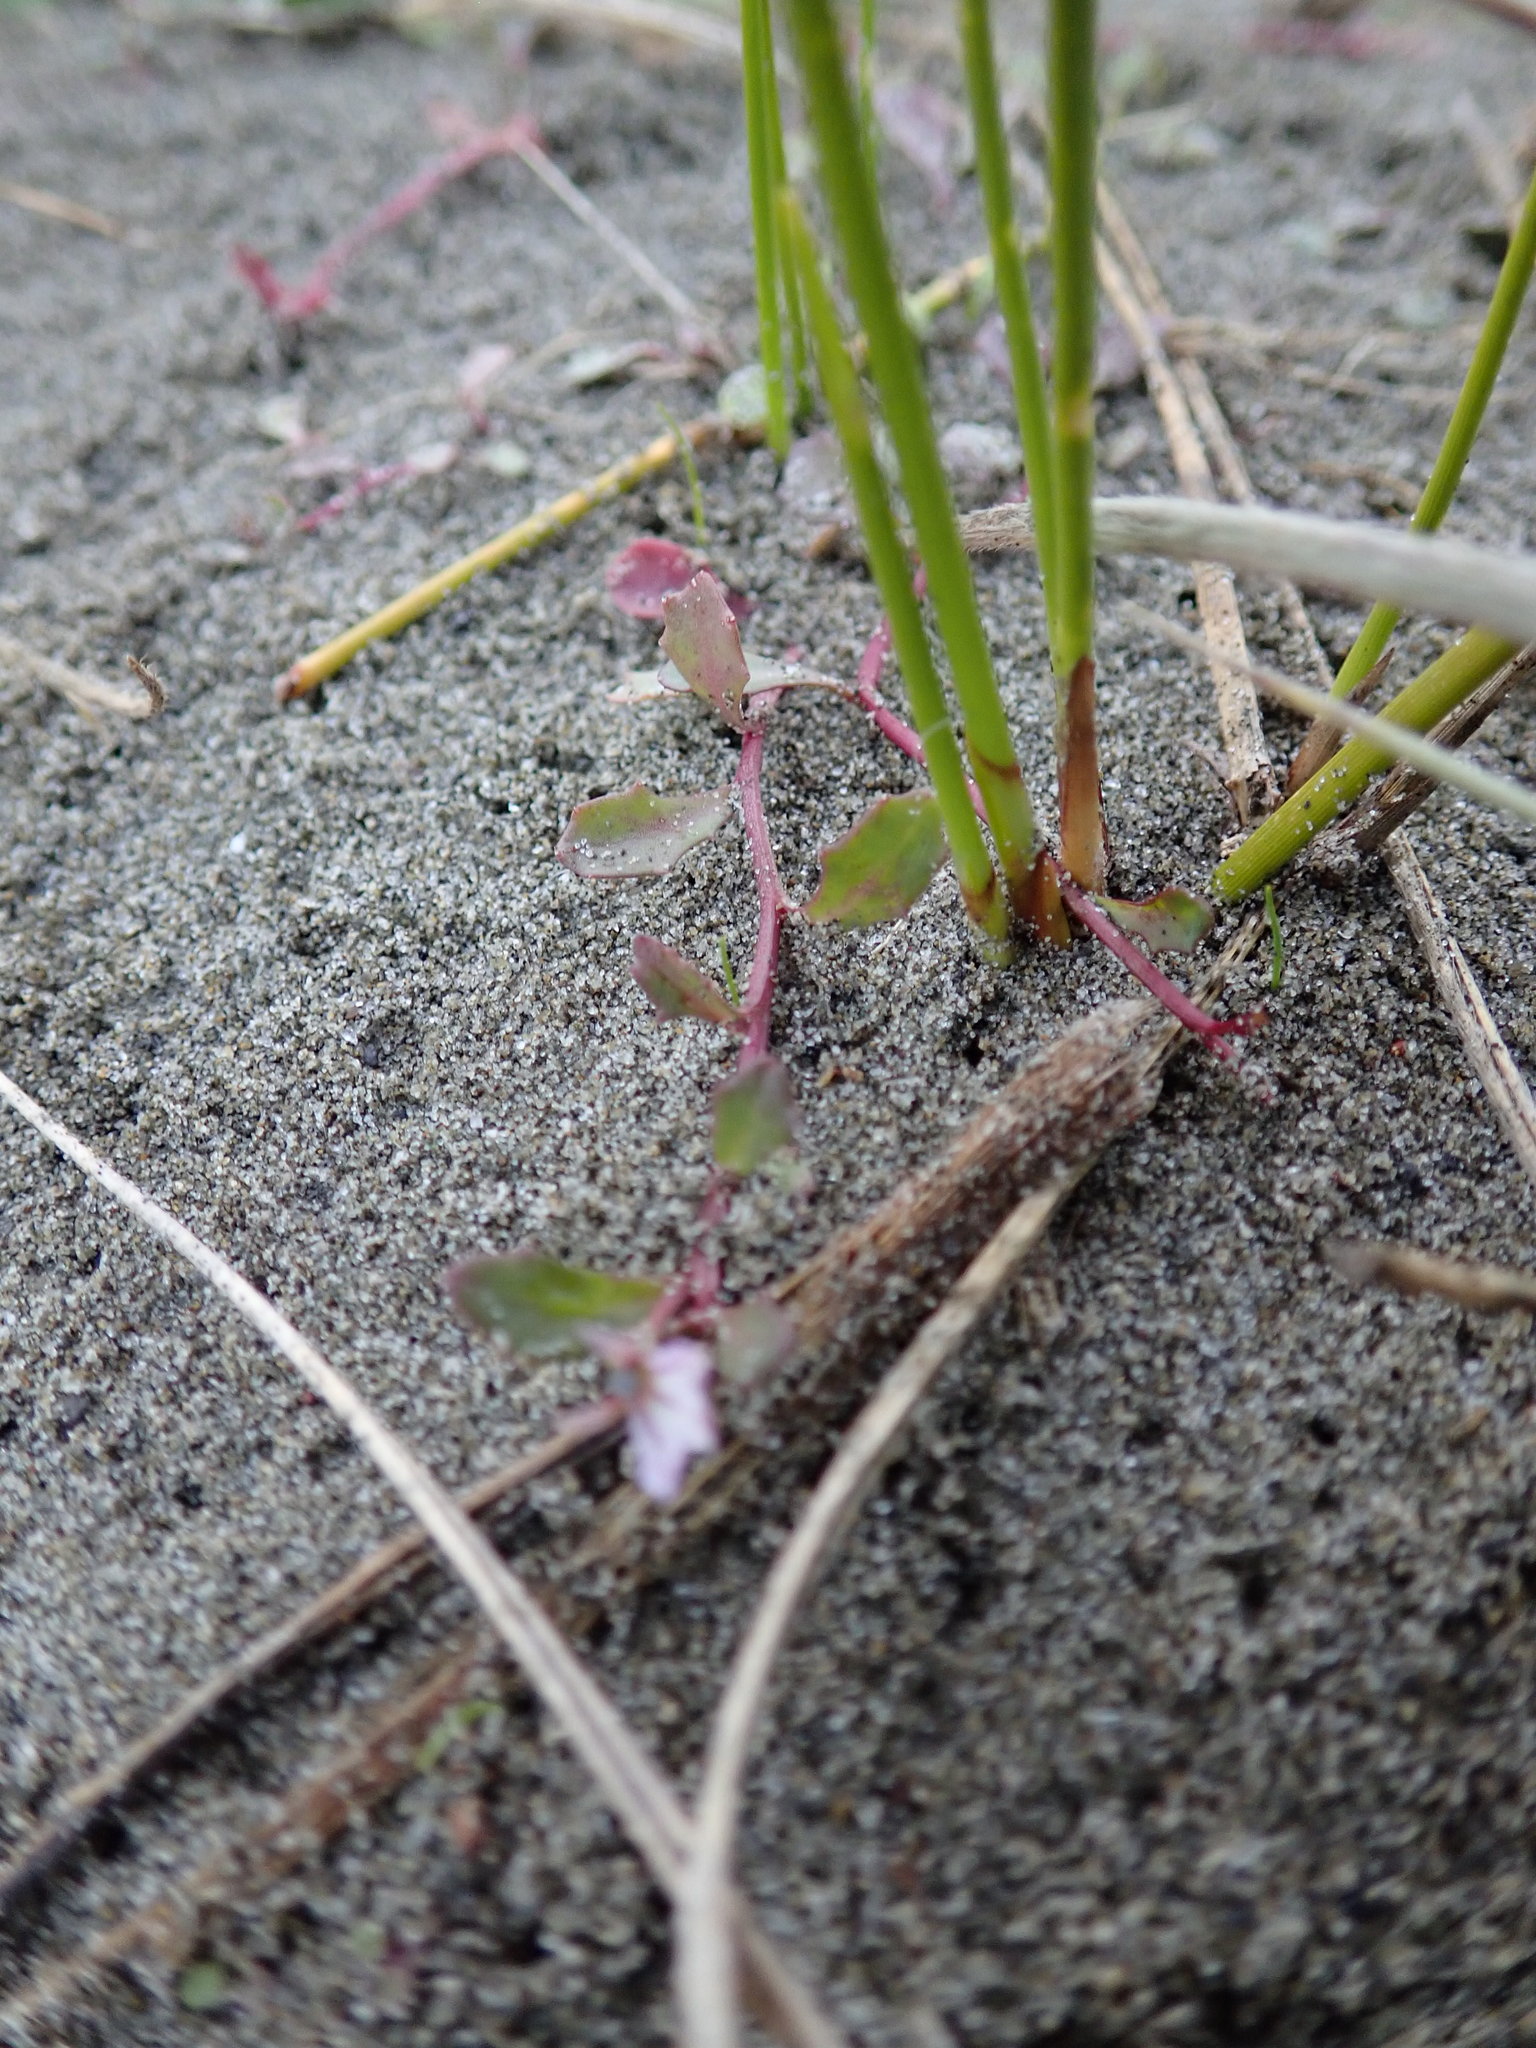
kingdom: Plantae
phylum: Tracheophyta
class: Magnoliopsida
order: Asterales
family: Campanulaceae
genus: Lobelia
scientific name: Lobelia anceps
